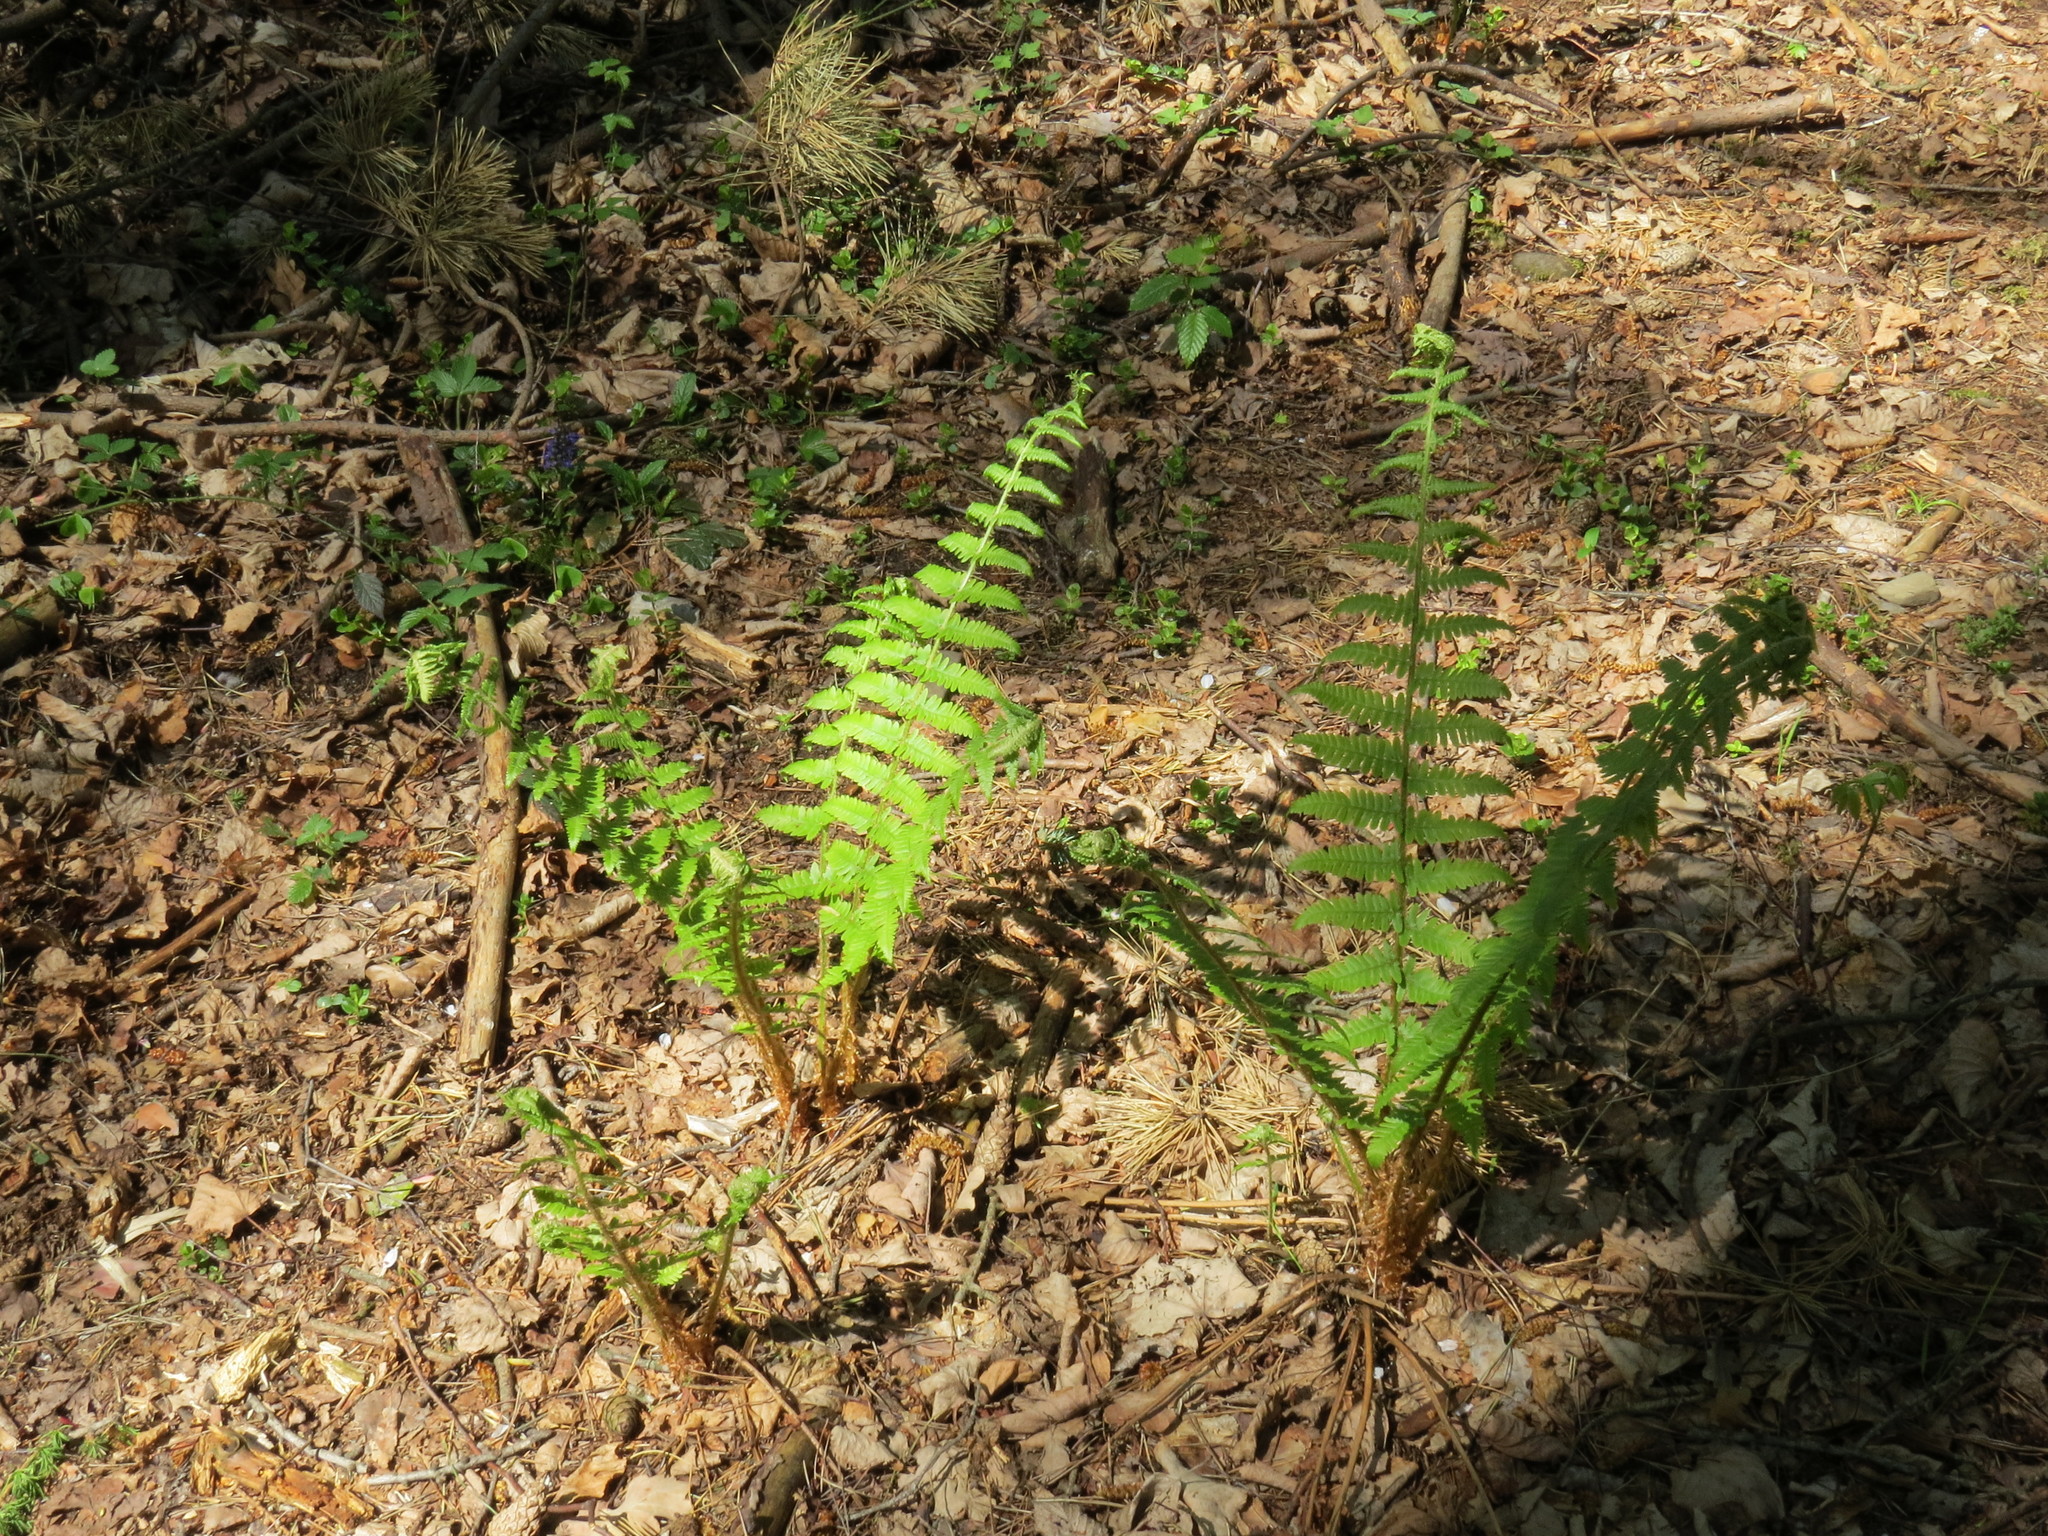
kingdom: Plantae
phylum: Tracheophyta
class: Polypodiopsida
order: Polypodiales
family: Dryopteridaceae
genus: Dryopteris
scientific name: Dryopteris filix-mas
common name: Male fern
